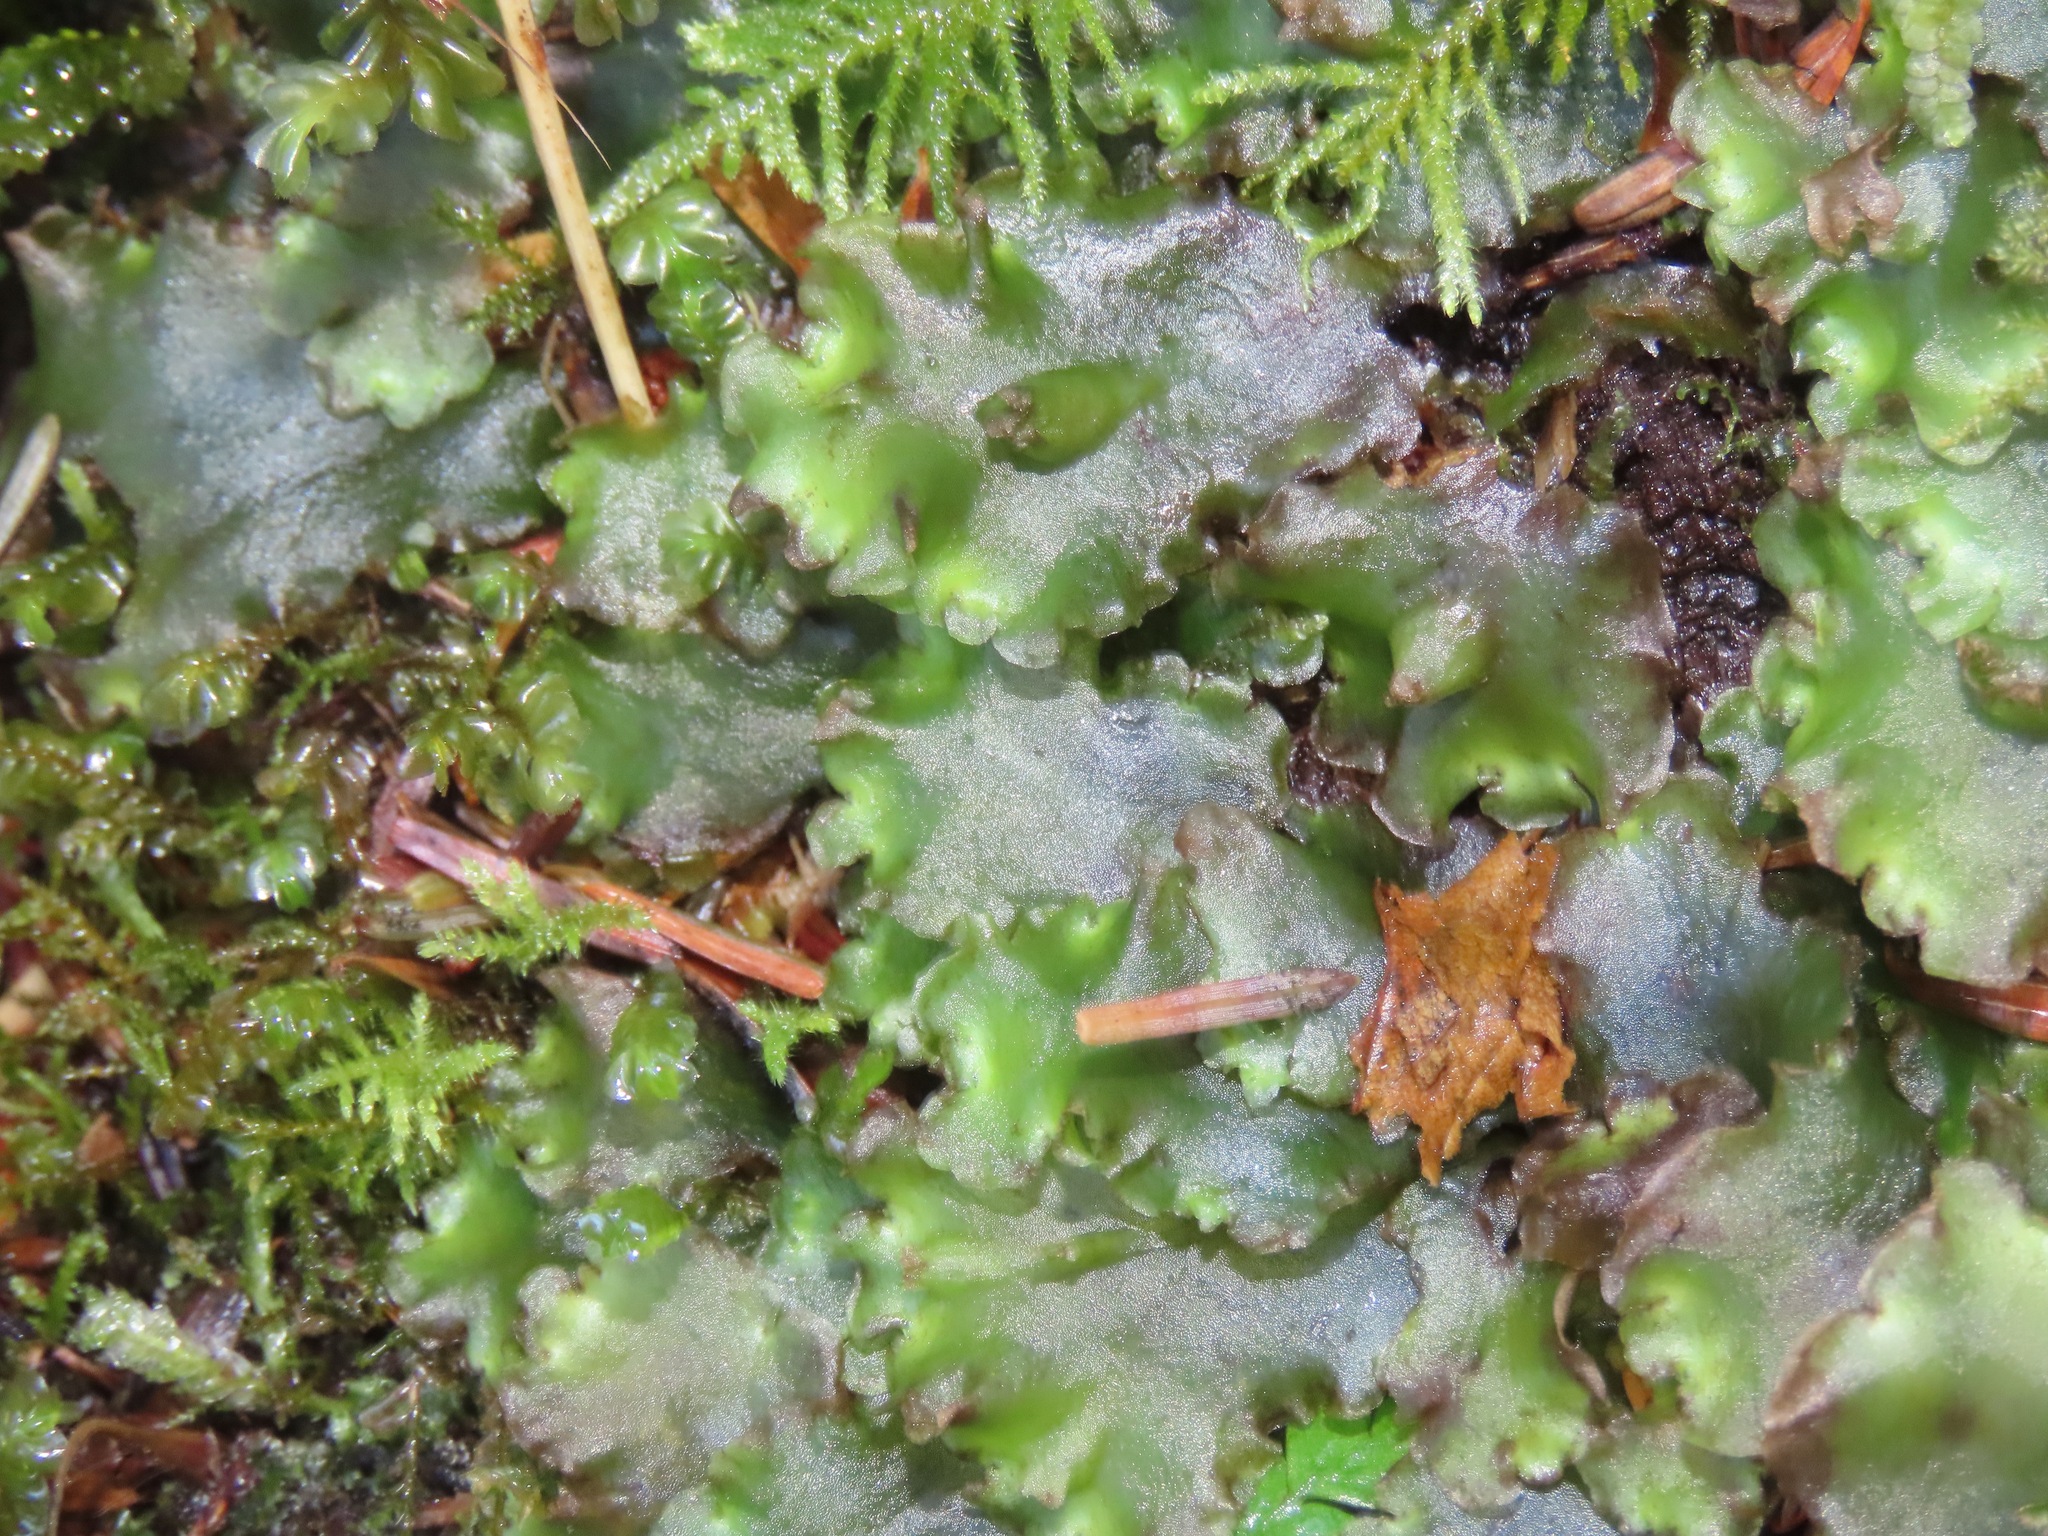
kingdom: Plantae
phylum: Marchantiophyta
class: Jungermanniopsida
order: Pelliales
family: Pelliaceae
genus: Pellia
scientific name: Pellia neesiana
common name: Nees  pellia
